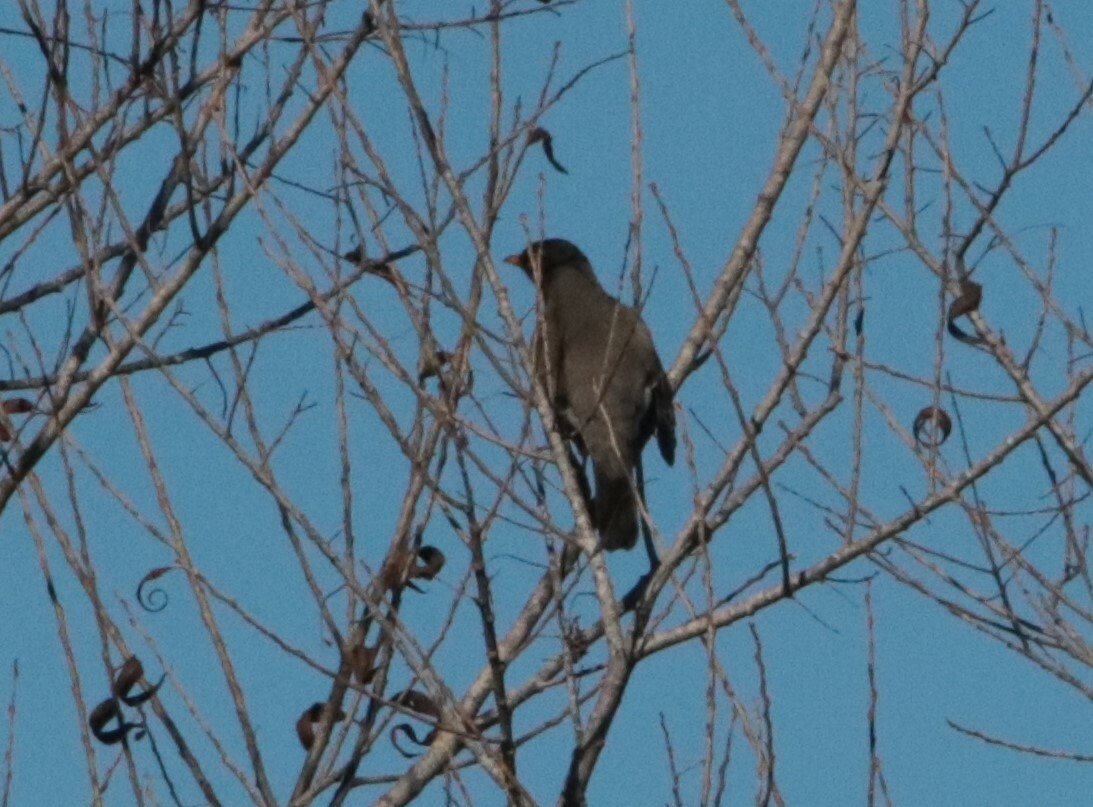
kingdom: Animalia
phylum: Chordata
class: Aves
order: Passeriformes
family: Turdidae
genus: Turdus
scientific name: Turdus migratorius
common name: American robin
